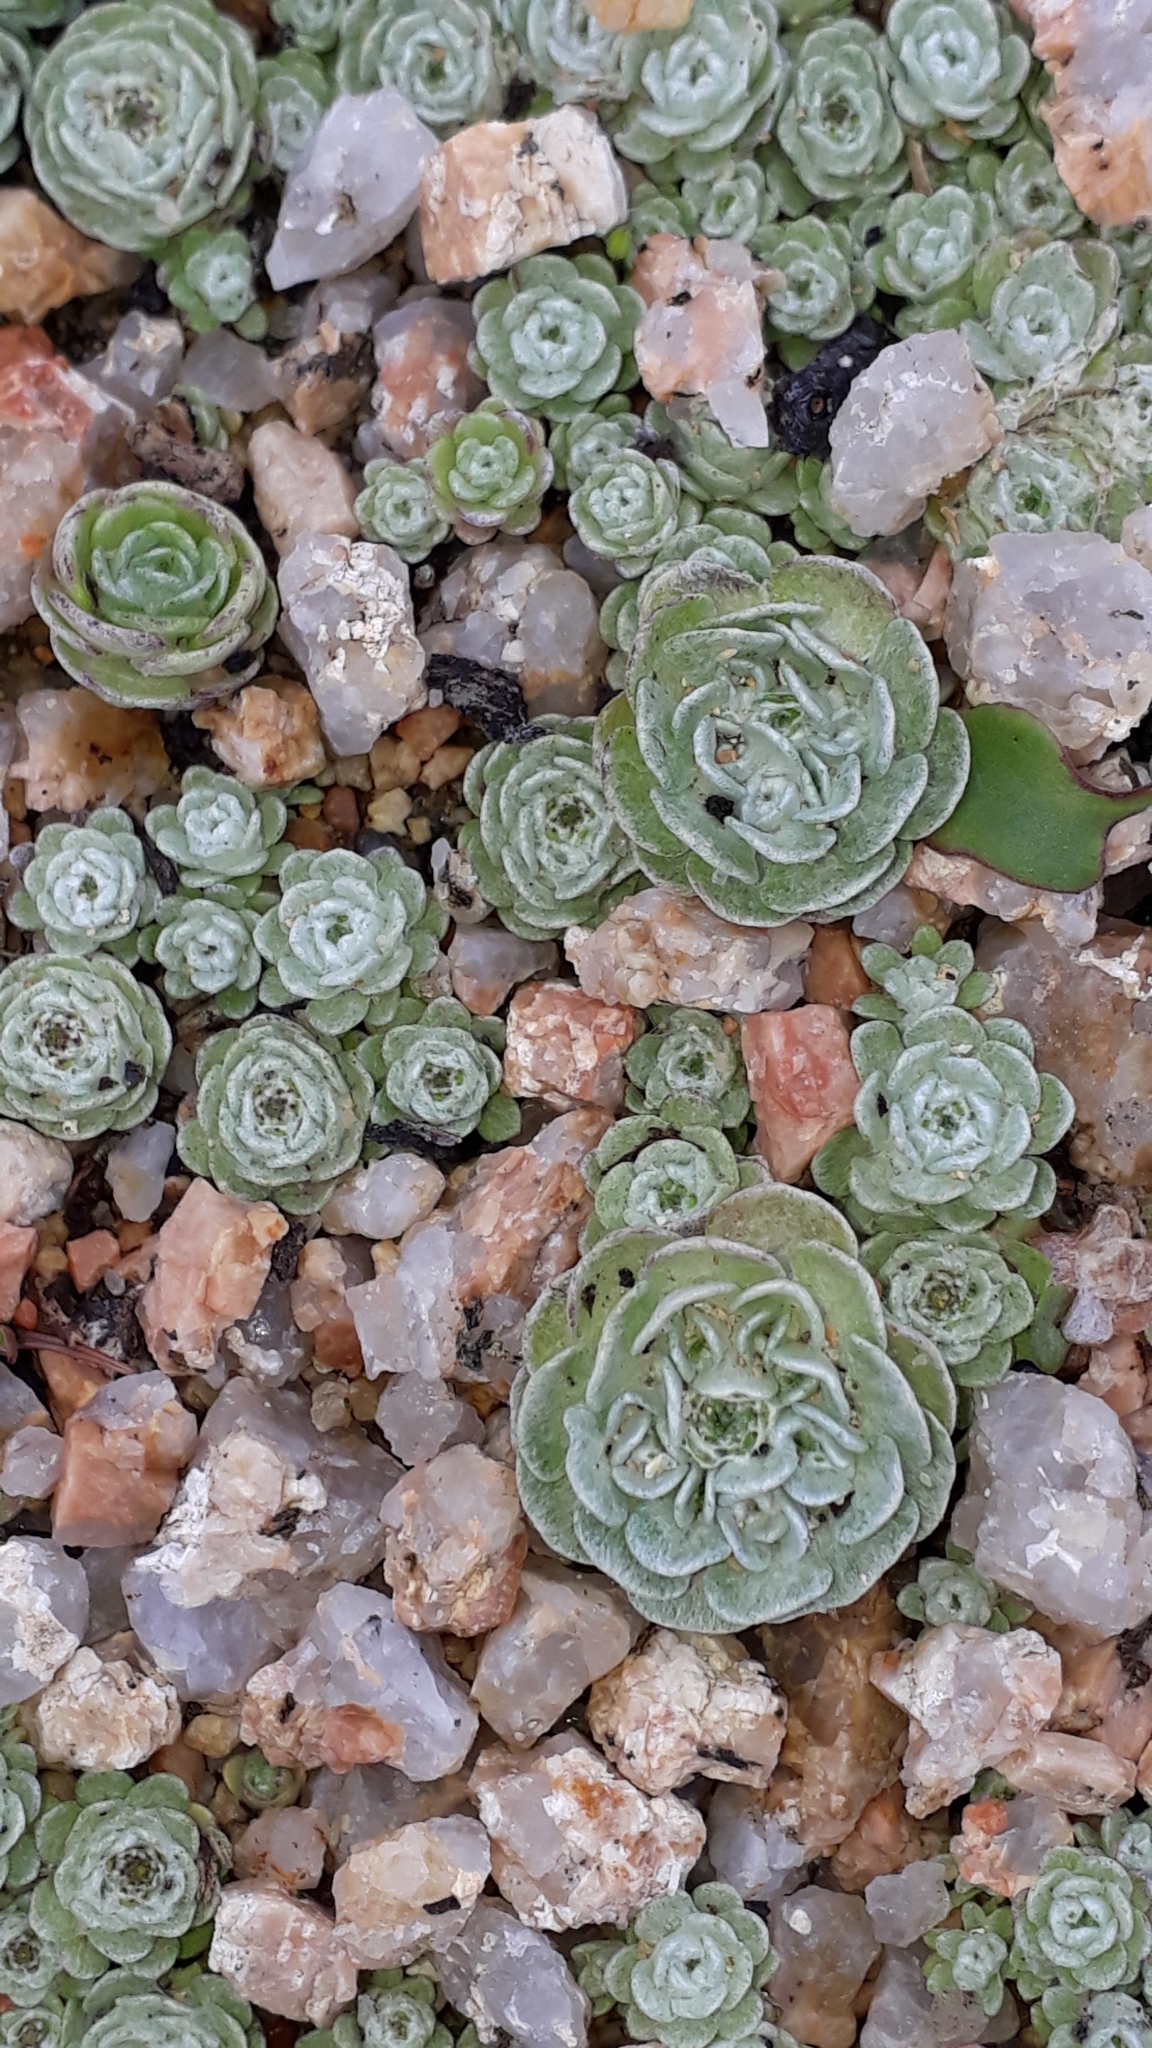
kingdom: Plantae
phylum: Tracheophyta
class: Magnoliopsida
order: Asterales
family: Asteraceae
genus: Filago
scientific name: Filago tyrrhenica
